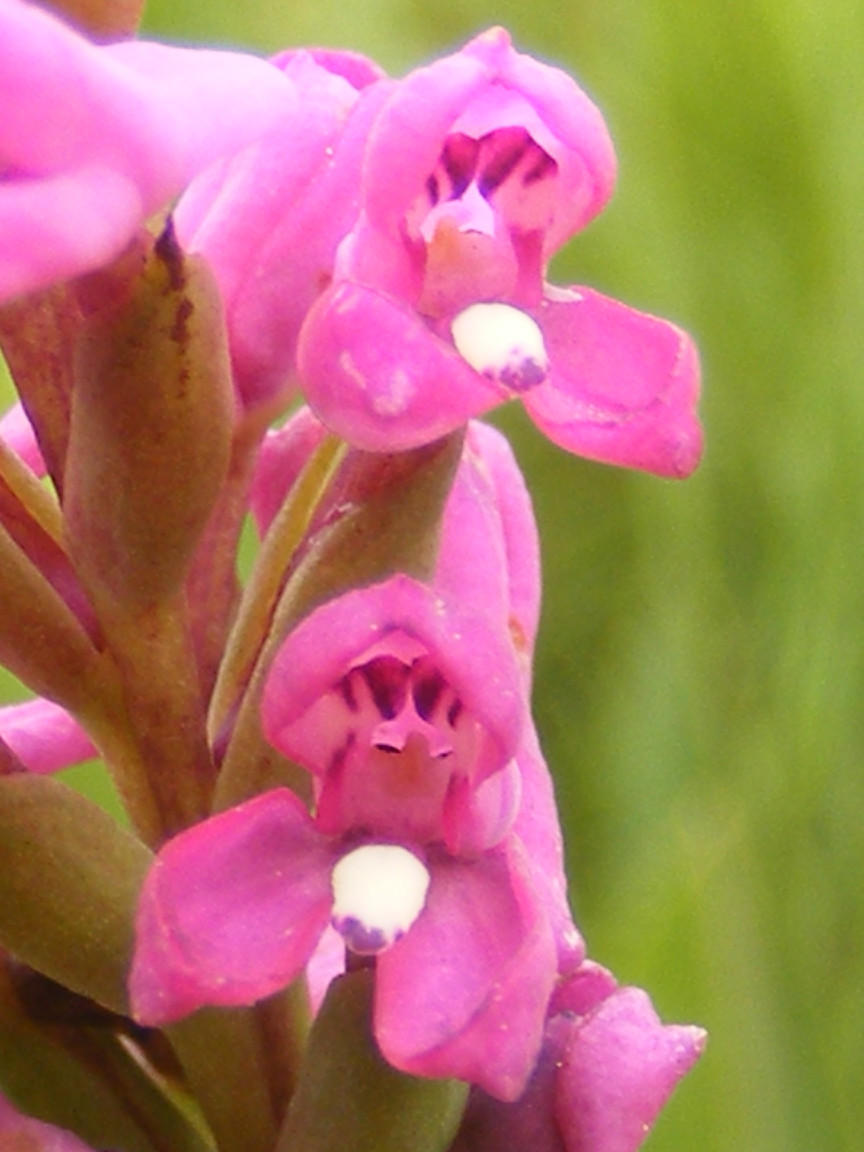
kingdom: Plantae
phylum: Tracheophyta
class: Liliopsida
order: Asparagales
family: Orchidaceae
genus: Disa
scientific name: Disa stachyoides
